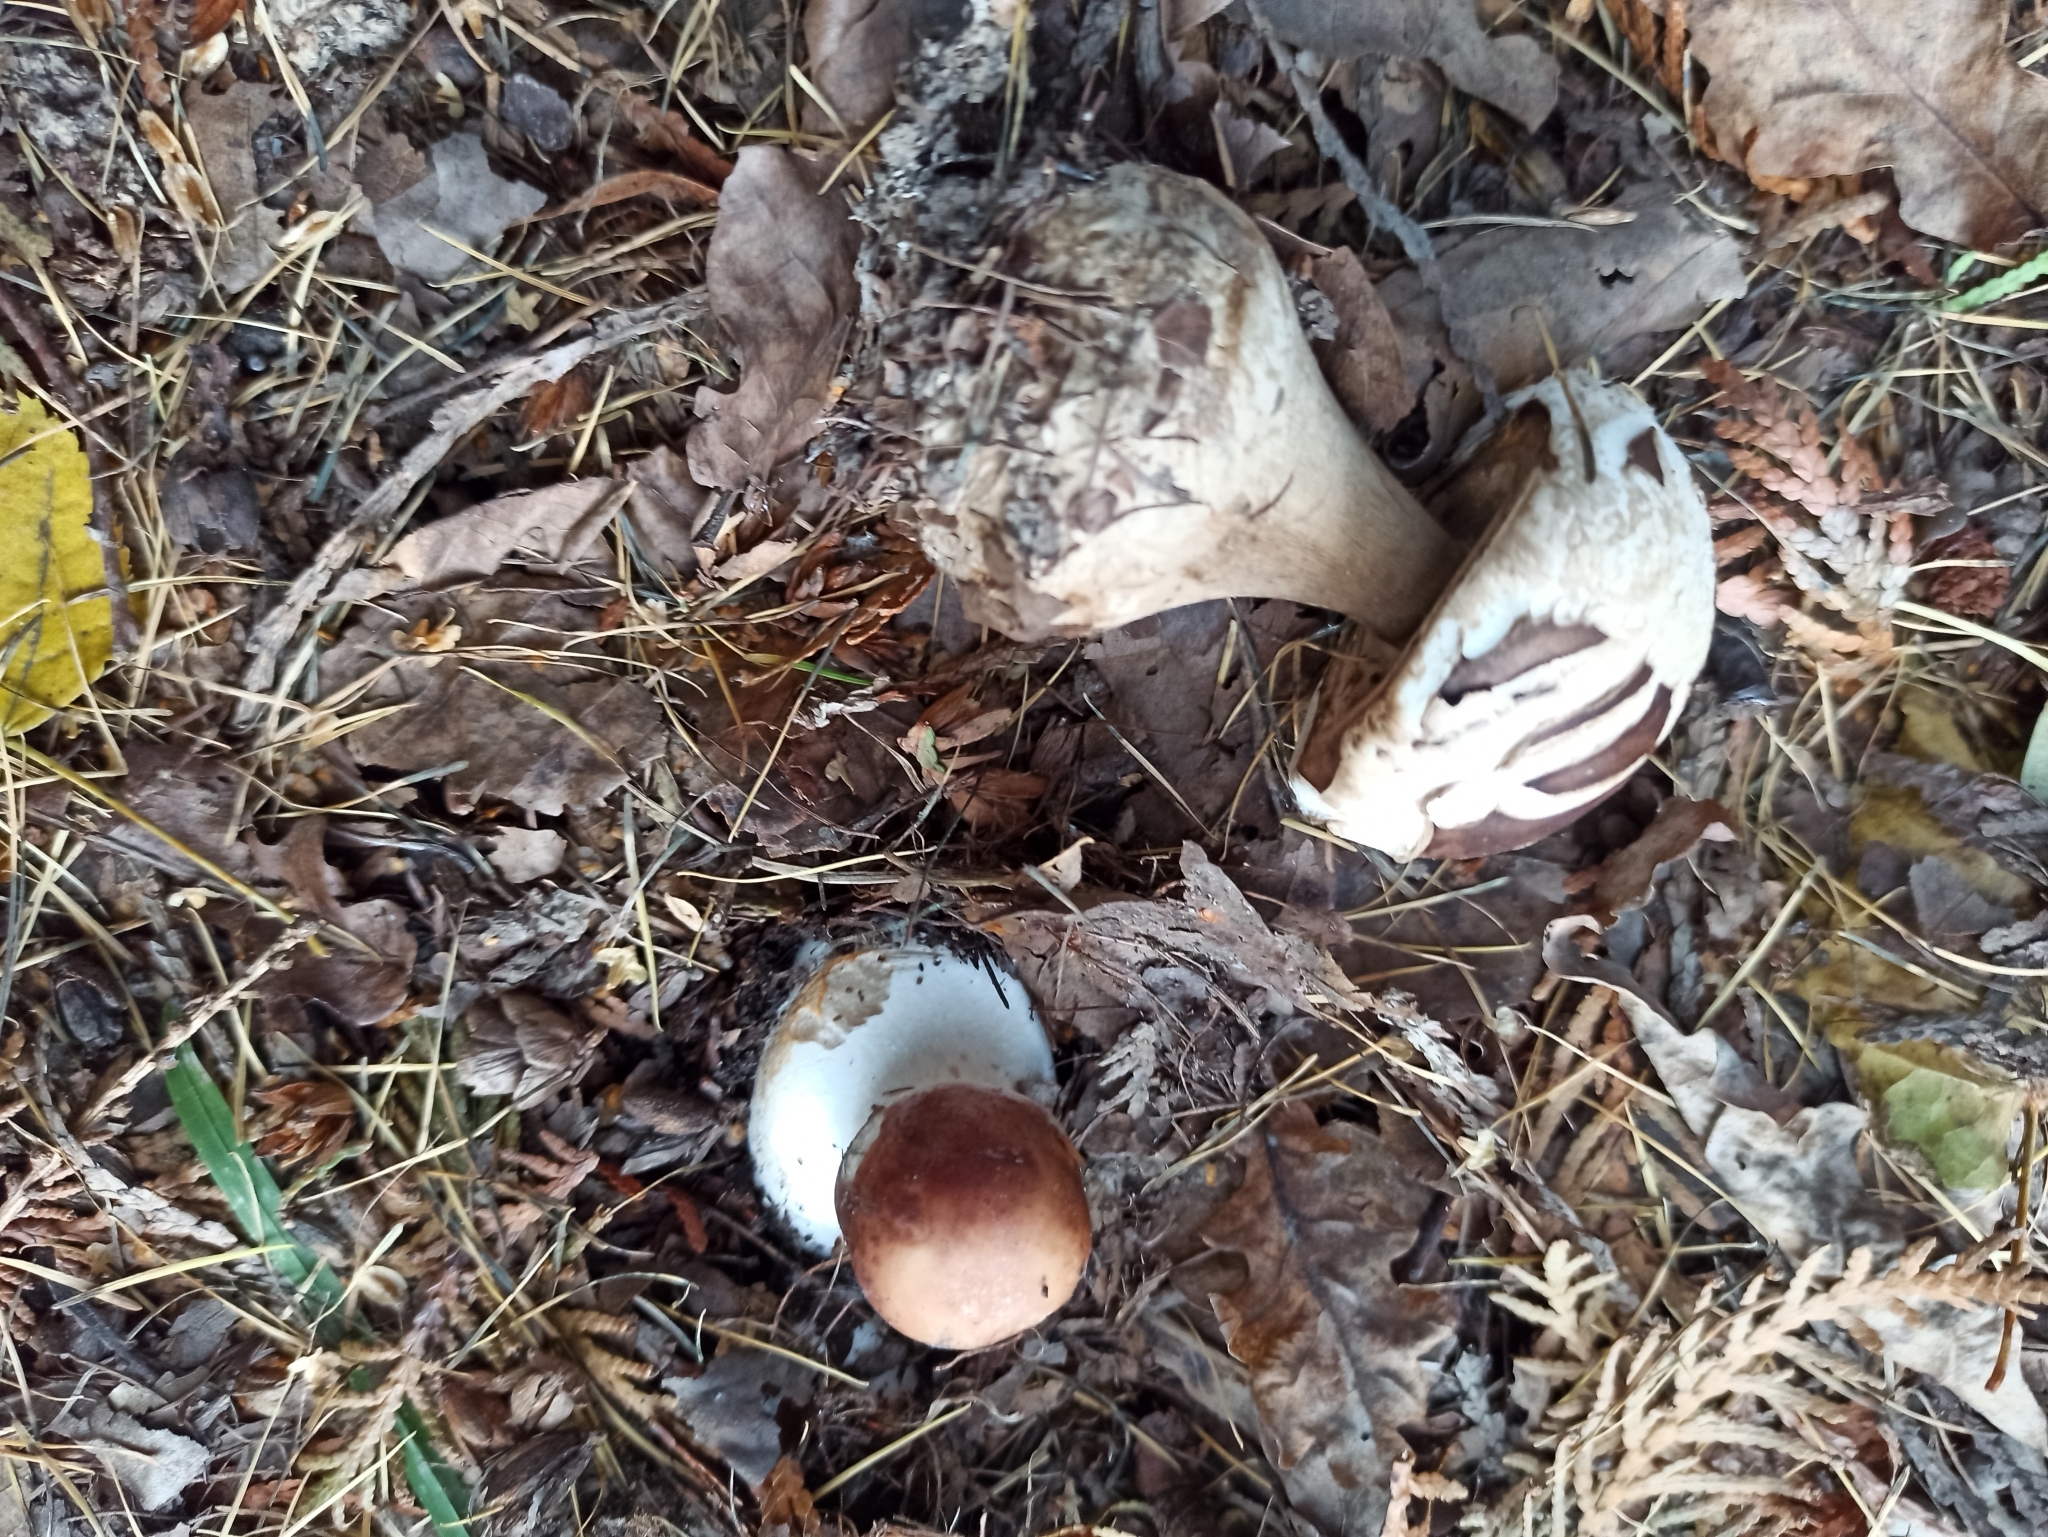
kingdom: Fungi
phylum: Basidiomycota
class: Agaricomycetes
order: Agaricales
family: Tricholomataceae
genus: Leucocortinarius
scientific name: Leucocortinarius bulbiger
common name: White webcap
